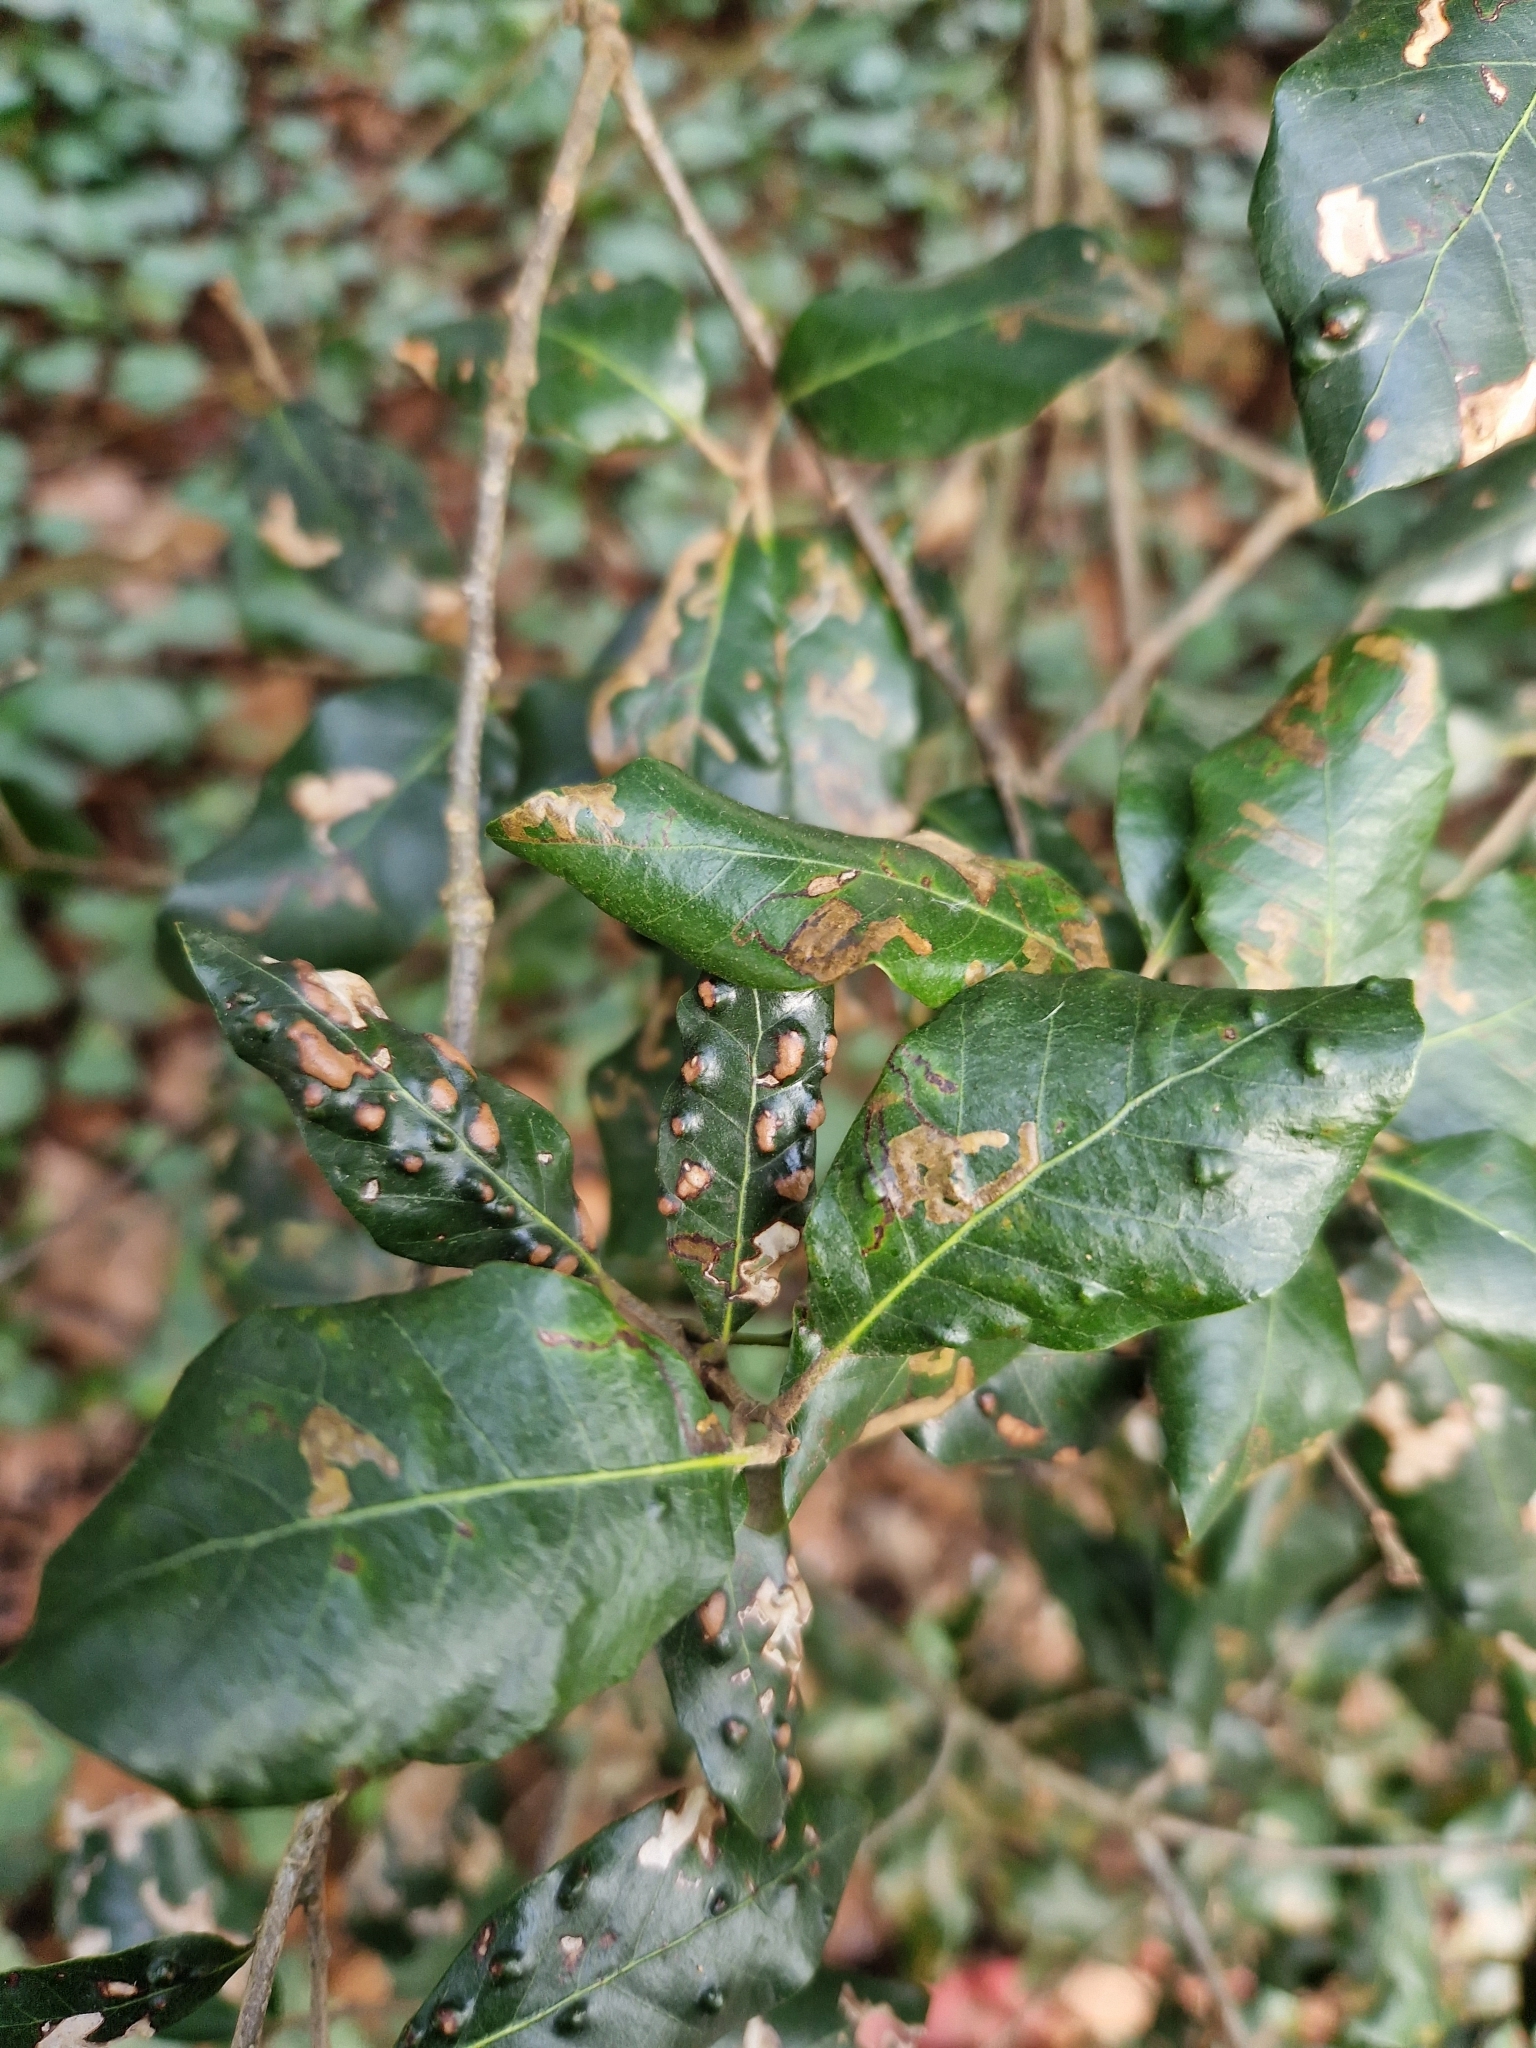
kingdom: Animalia
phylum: Arthropoda
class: Arachnida
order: Trombidiformes
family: Eriophyidae
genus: Aceria
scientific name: Aceria ilicis
